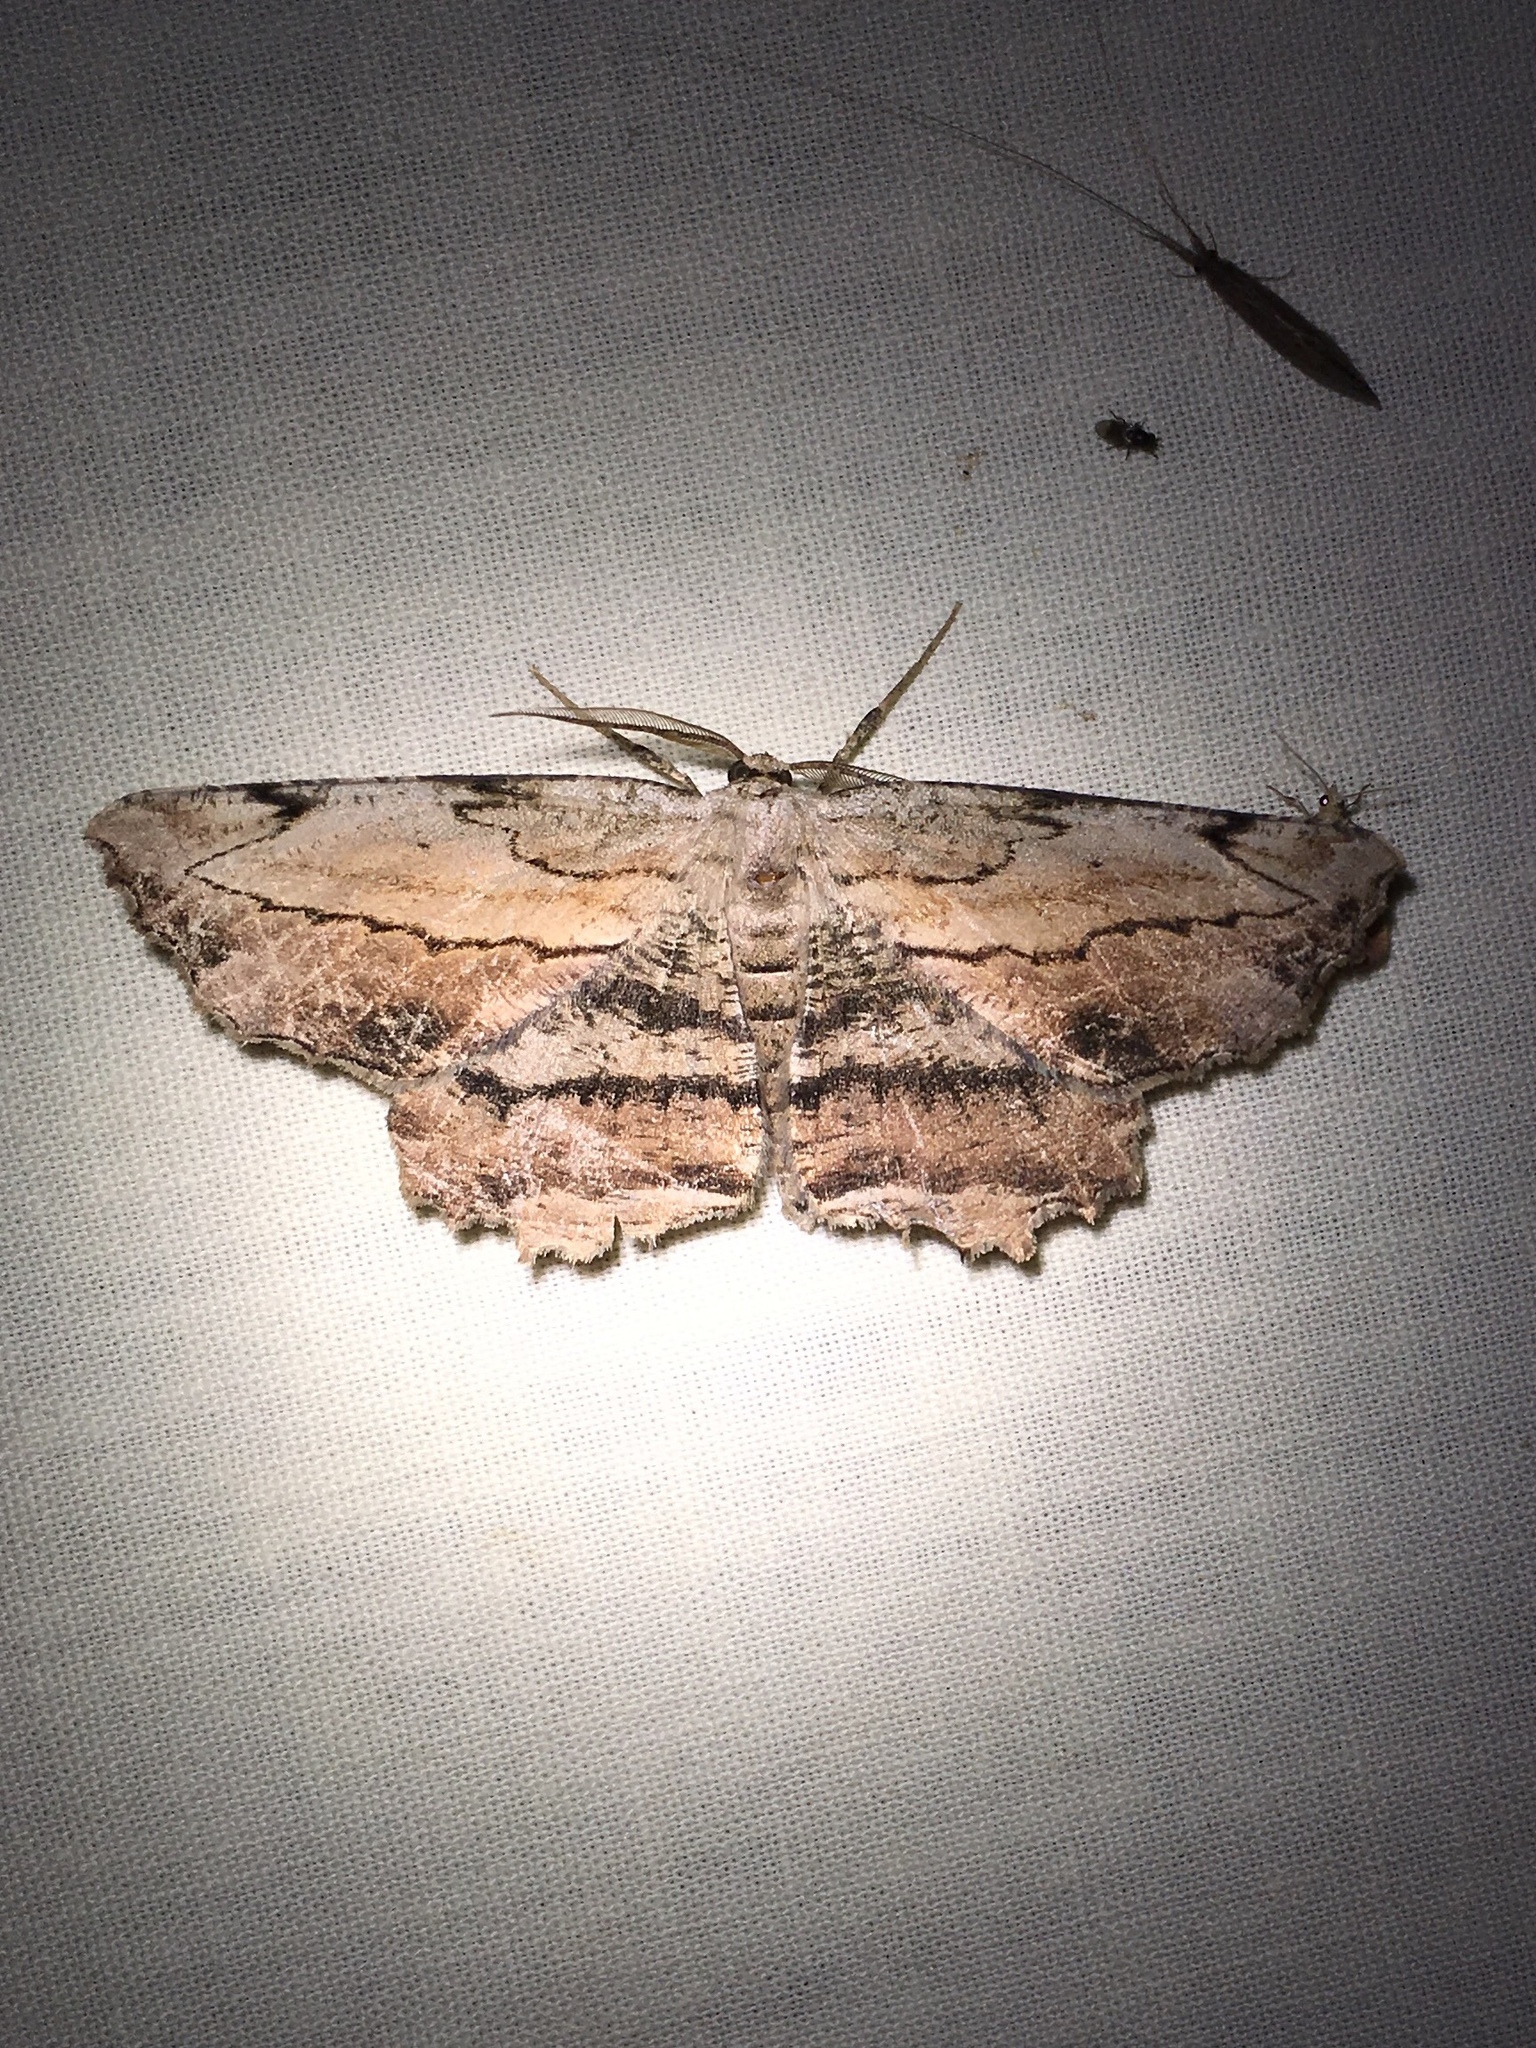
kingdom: Animalia
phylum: Arthropoda
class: Insecta
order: Lepidoptera
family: Geometridae
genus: Lytrosis
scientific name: Lytrosis unitaria
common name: Common lytrosis
